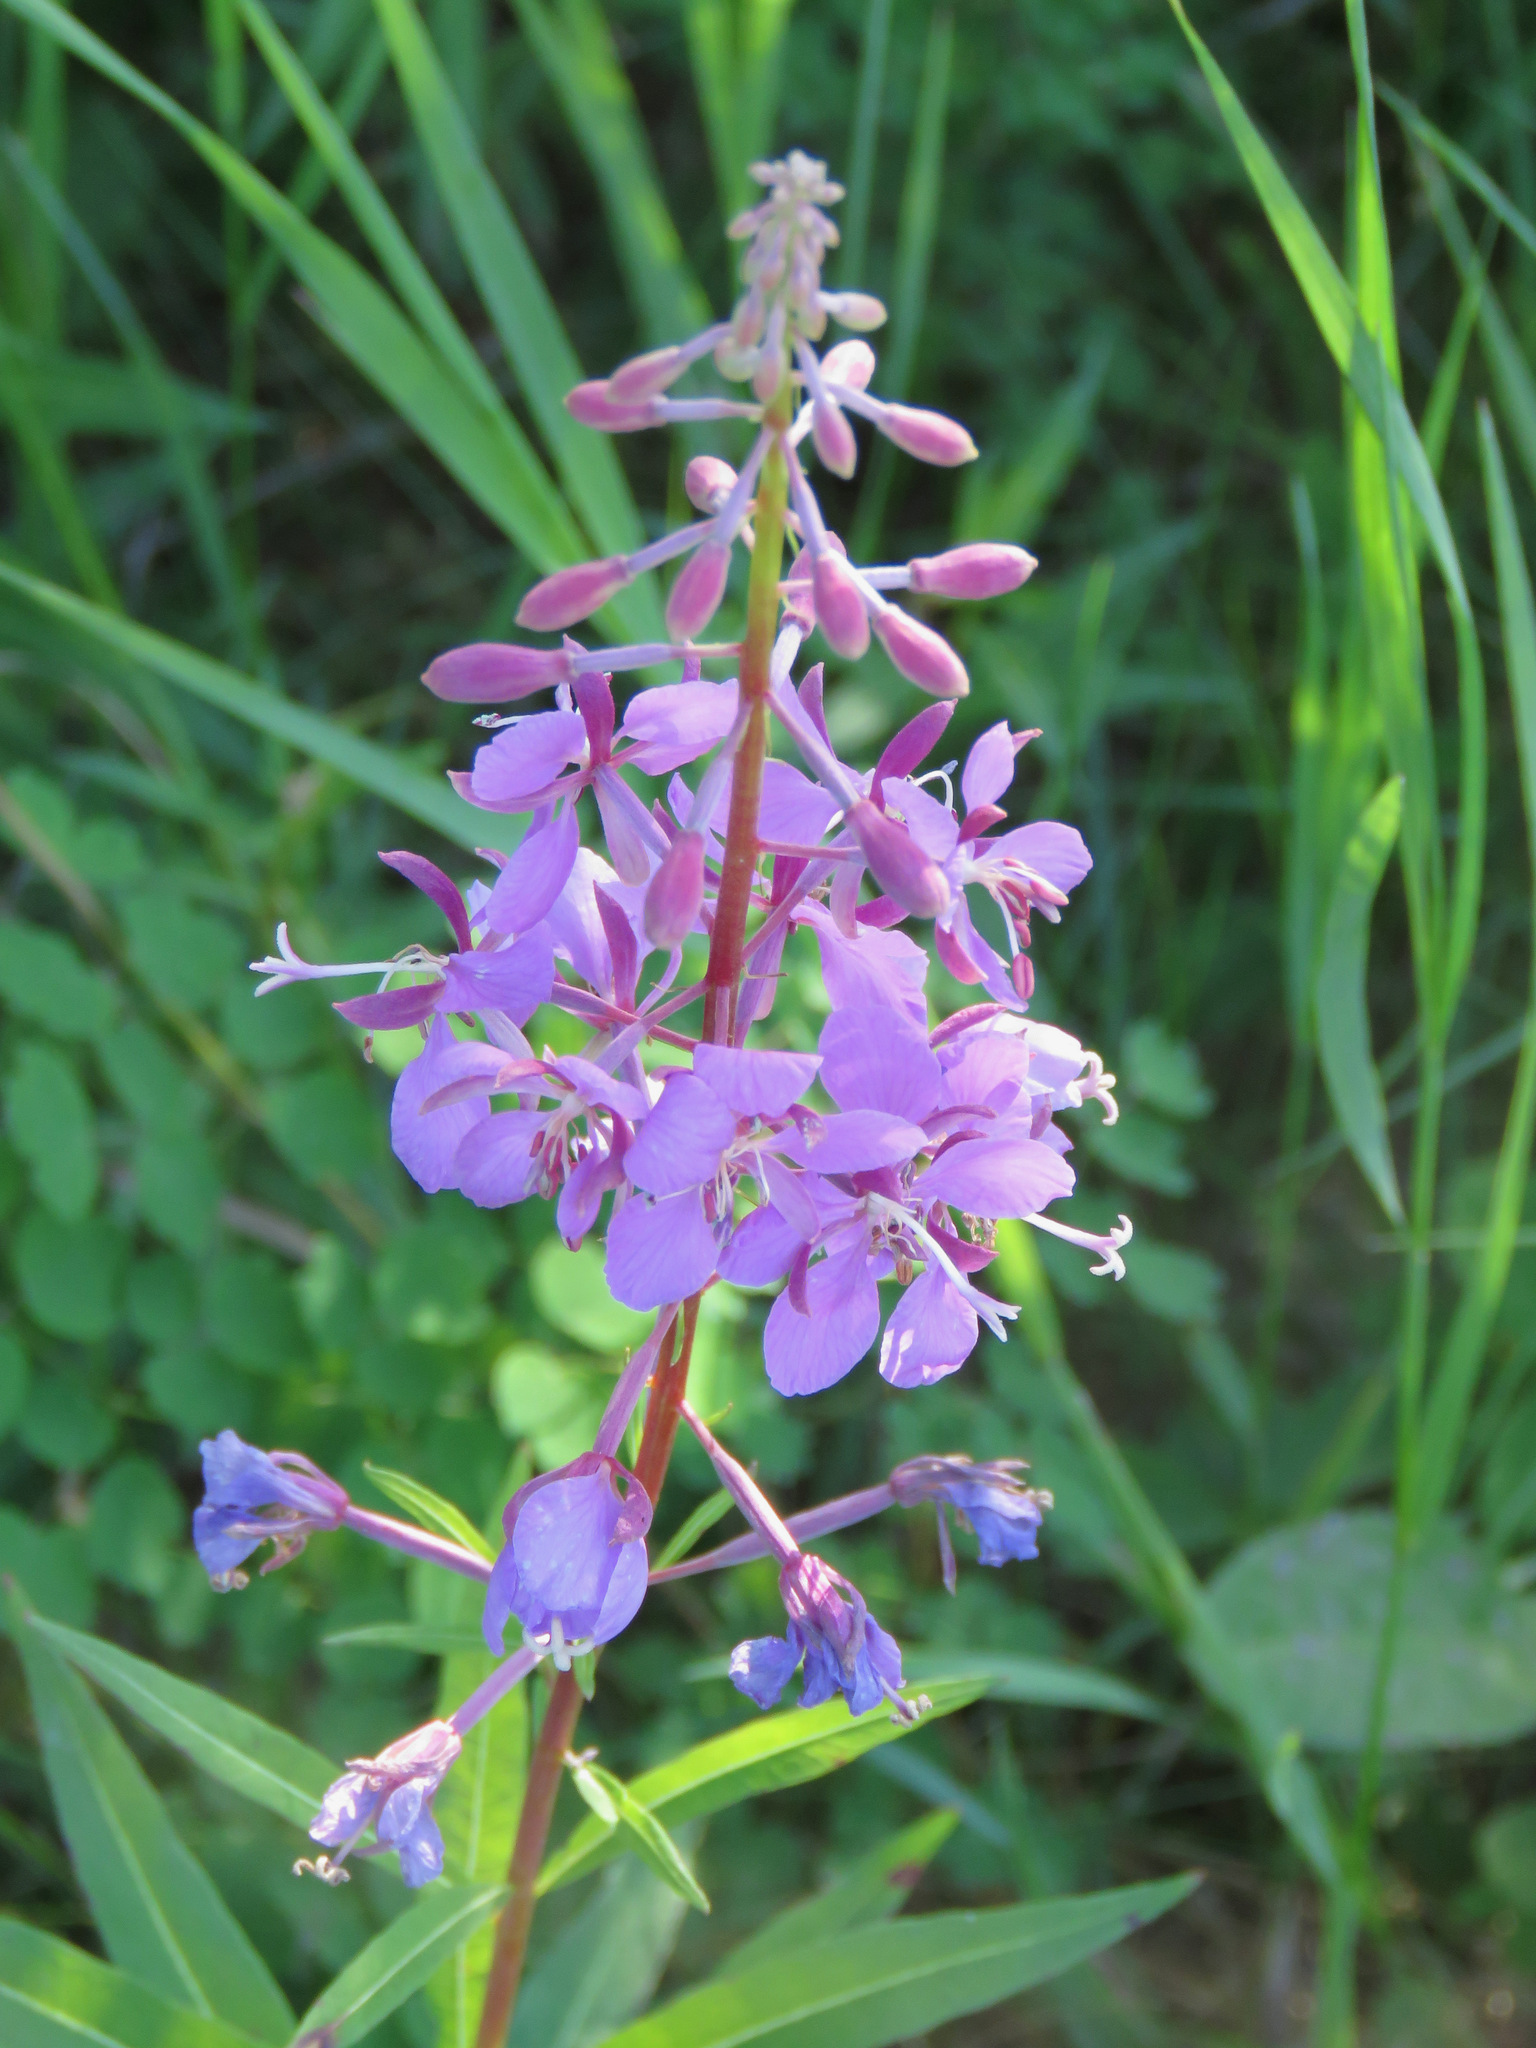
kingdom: Plantae
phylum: Tracheophyta
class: Magnoliopsida
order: Myrtales
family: Onagraceae
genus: Chamaenerion
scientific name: Chamaenerion angustifolium
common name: Fireweed
